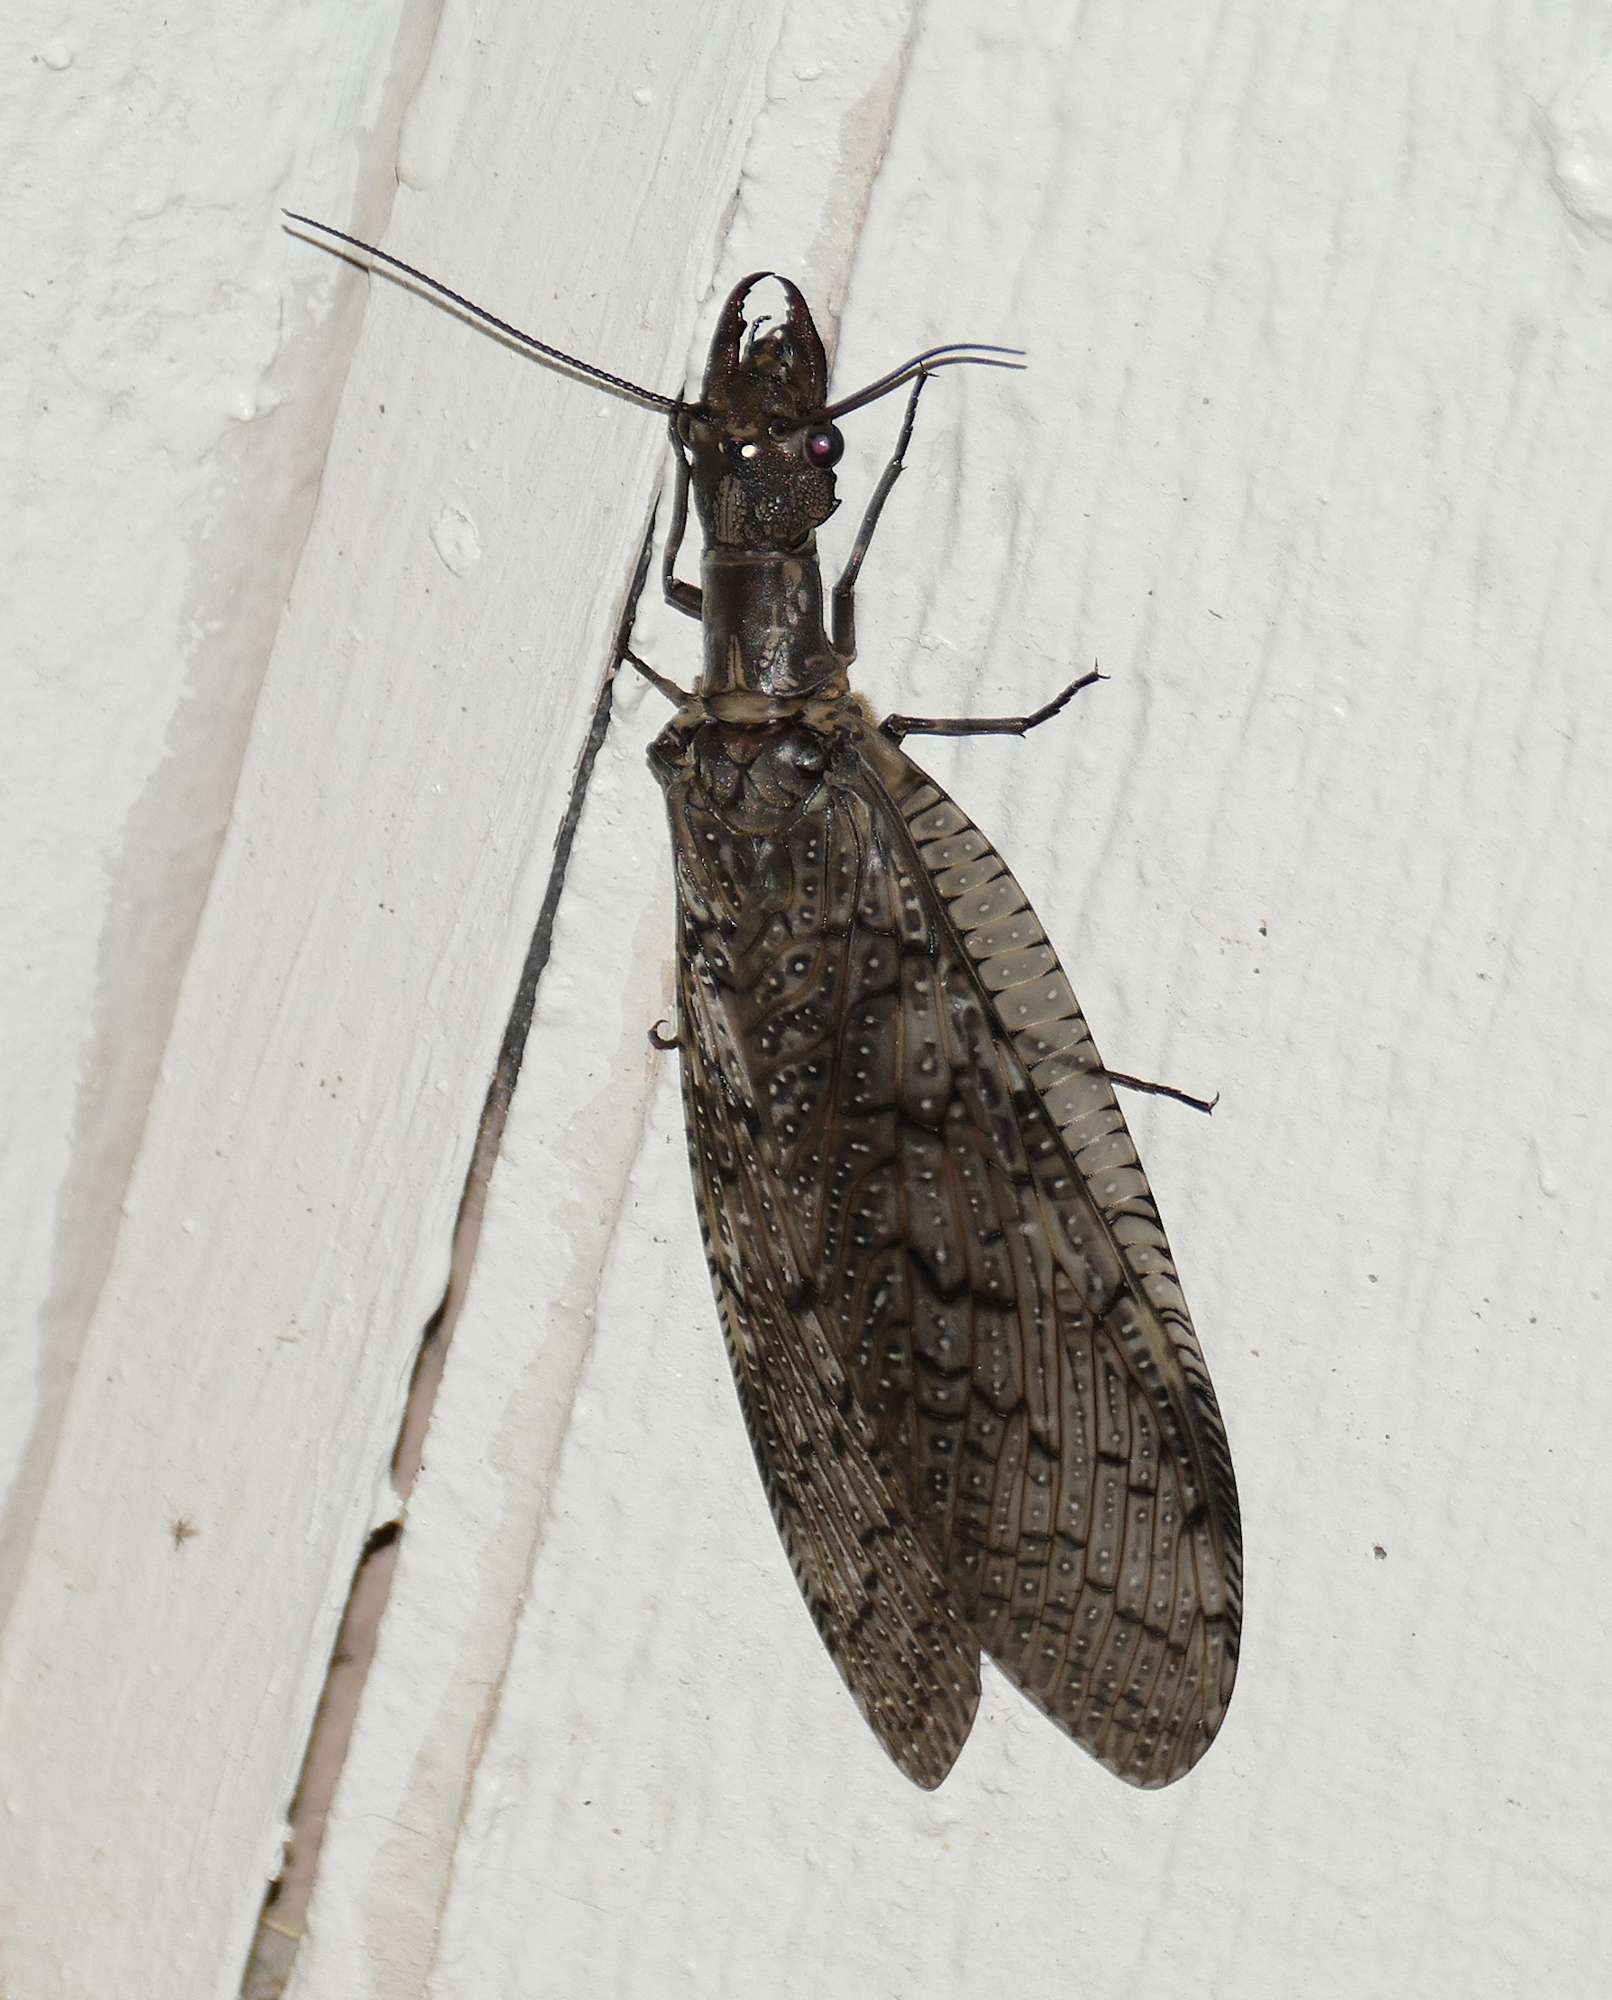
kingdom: Animalia
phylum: Arthropoda
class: Insecta
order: Megaloptera
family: Corydalidae
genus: Corydalus
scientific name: Corydalus texanus
